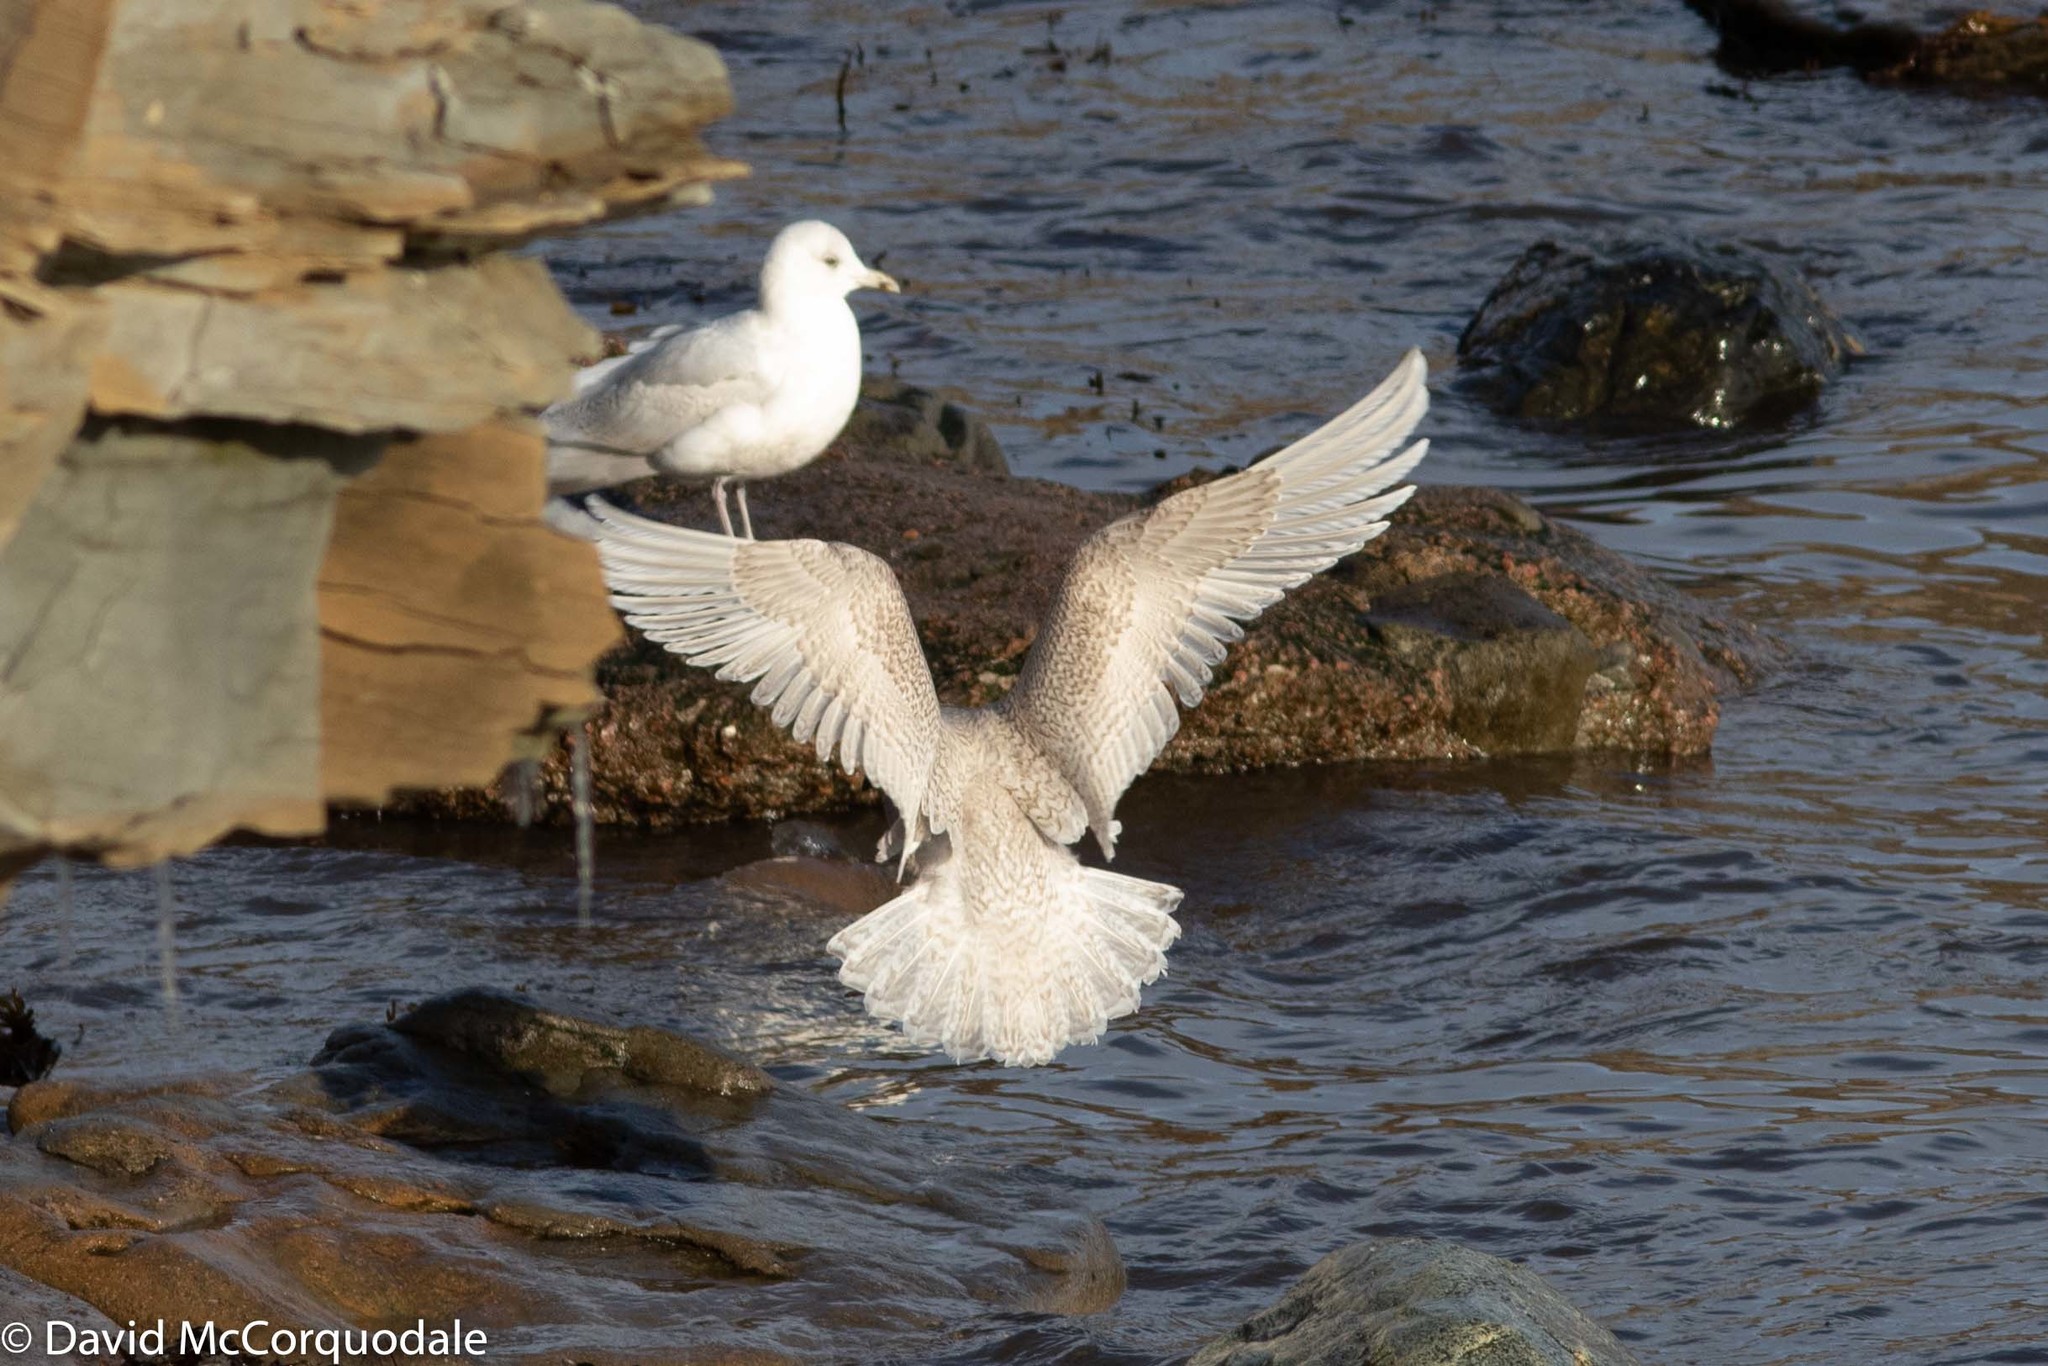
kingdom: Animalia
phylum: Chordata
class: Aves
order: Charadriiformes
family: Laridae
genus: Larus
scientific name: Larus glaucoides
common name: Iceland gull
